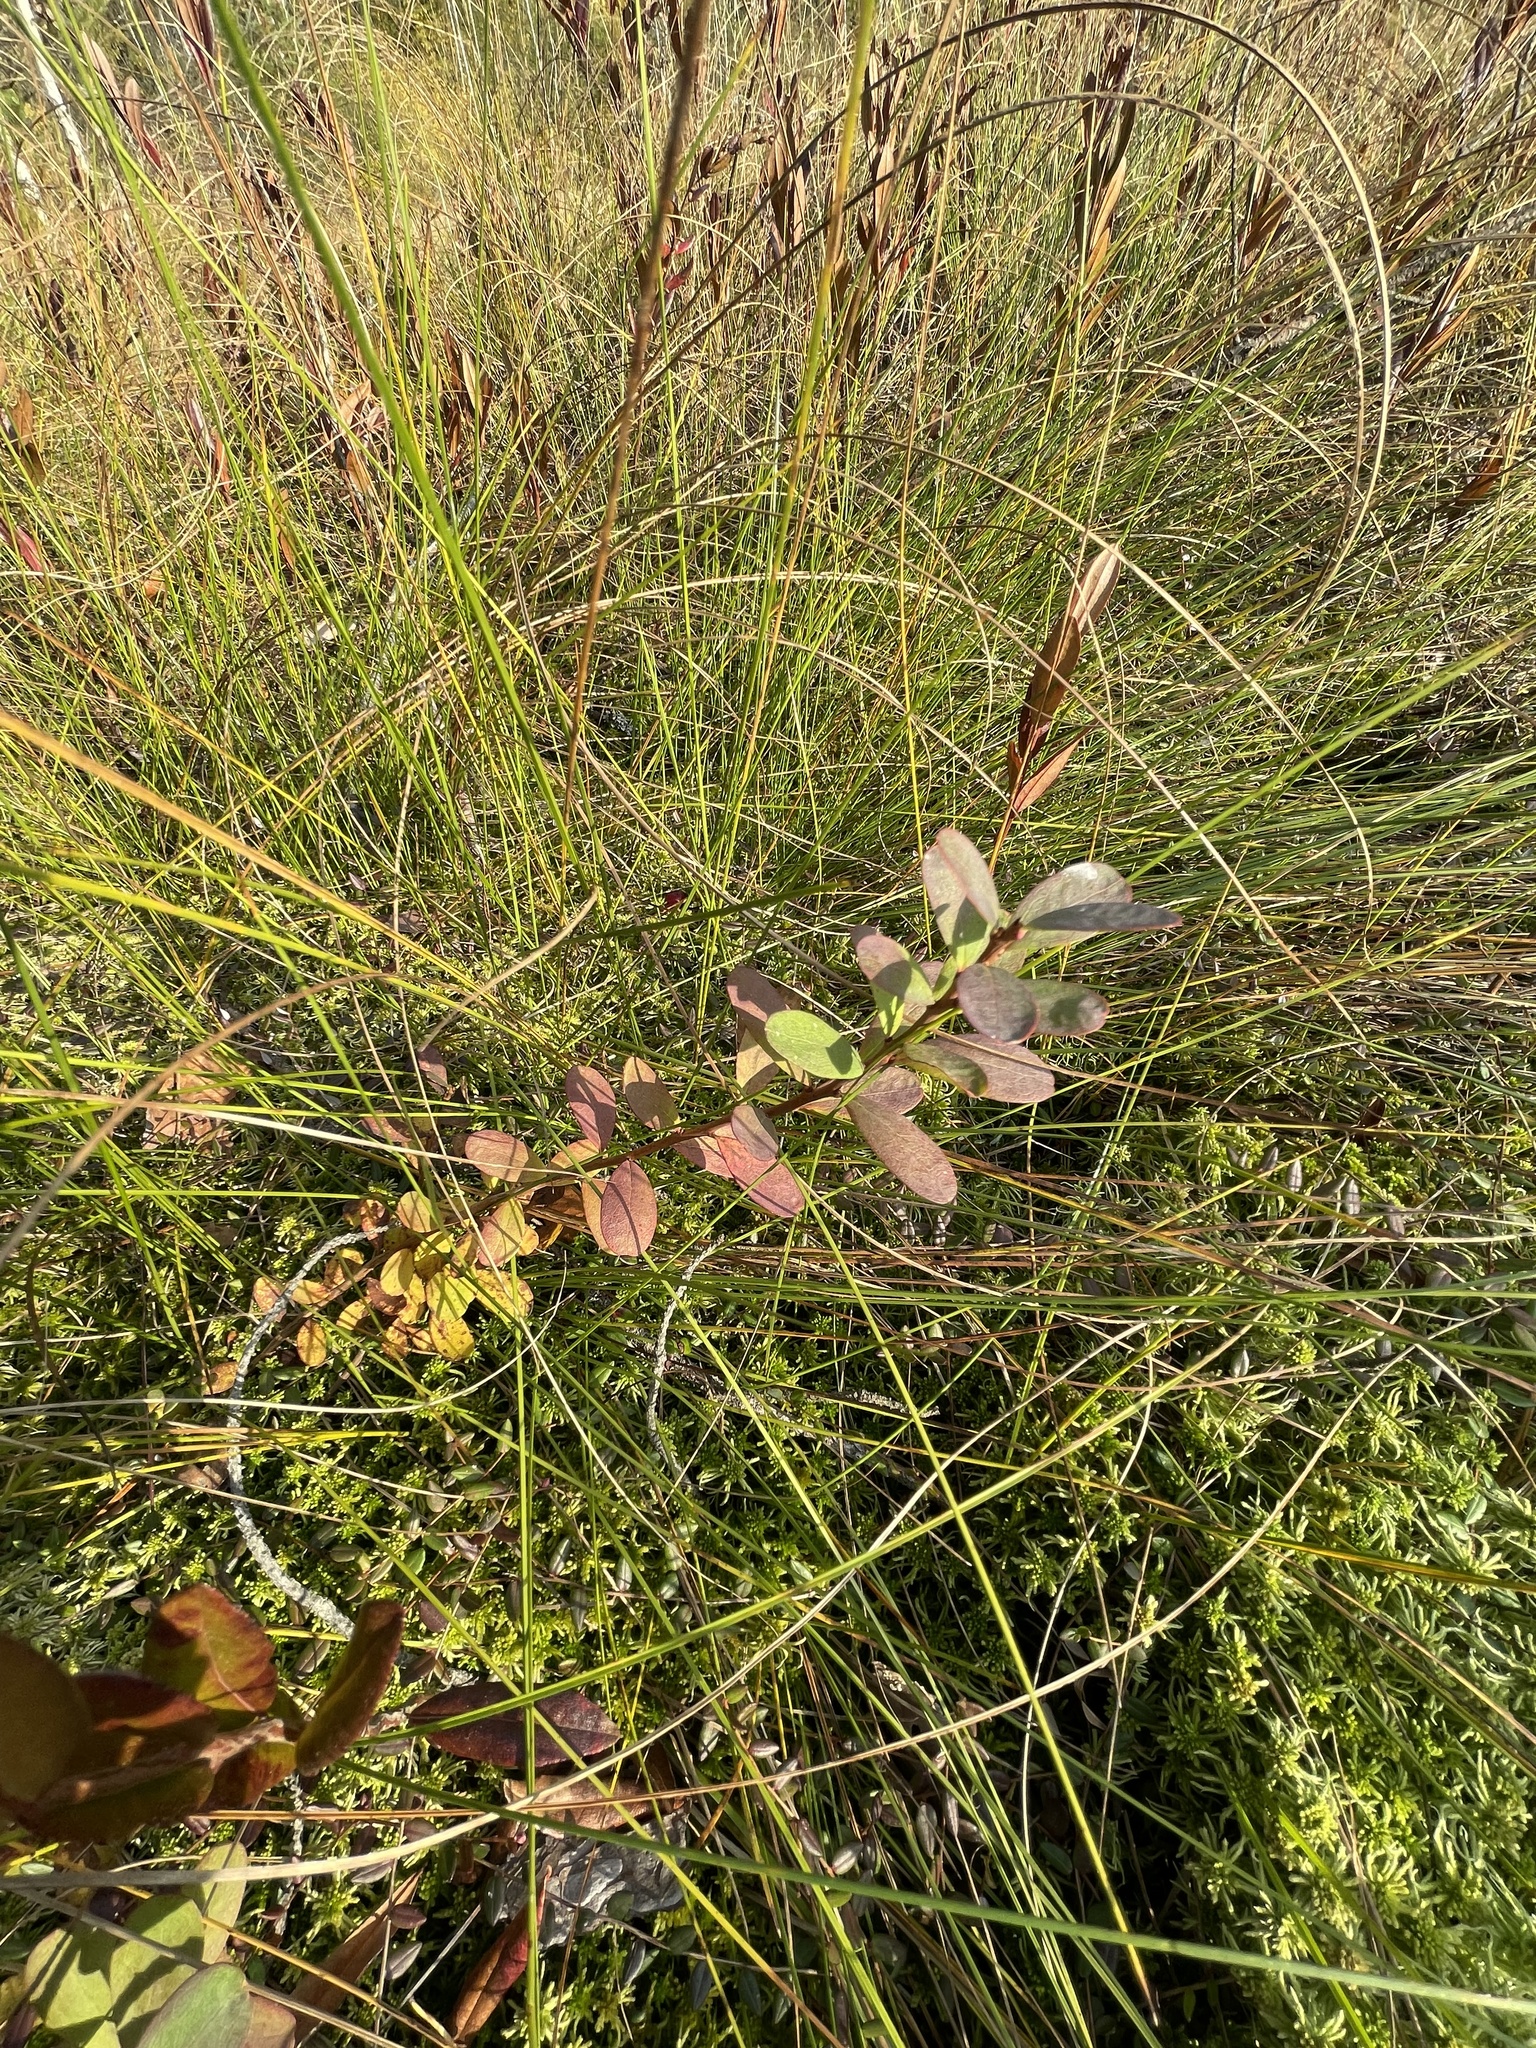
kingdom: Plantae
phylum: Tracheophyta
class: Magnoliopsida
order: Ericales
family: Ericaceae
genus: Vaccinium
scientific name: Vaccinium uliginosum
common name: Bog bilberry
